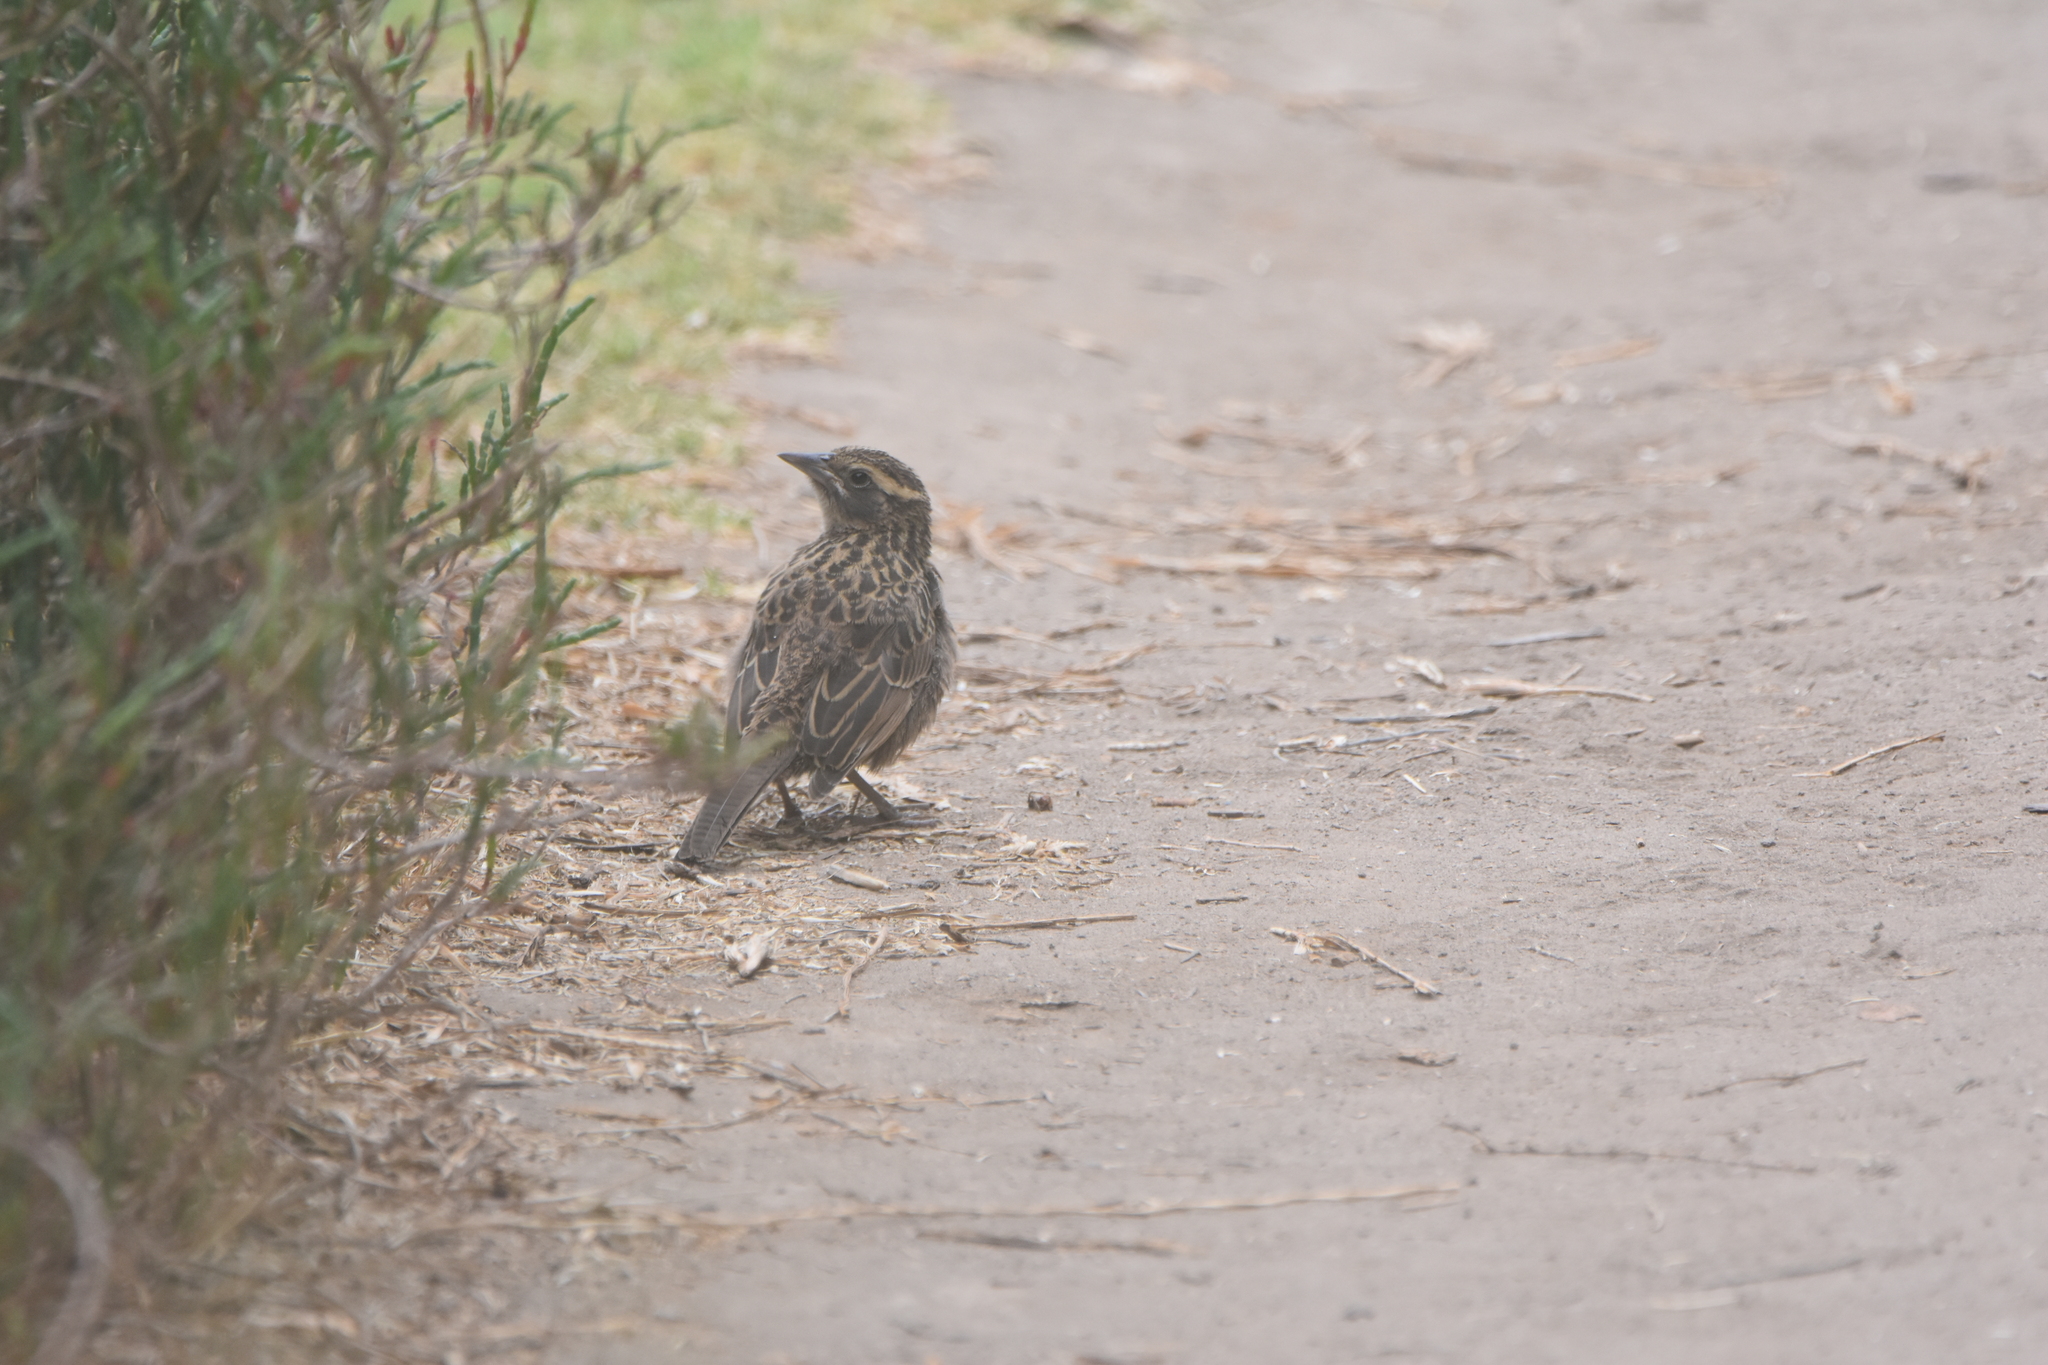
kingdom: Animalia
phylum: Chordata
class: Aves
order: Passeriformes
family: Icteridae
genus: Agelasticus
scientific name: Agelasticus thilius
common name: Yellow-winged blackbird
